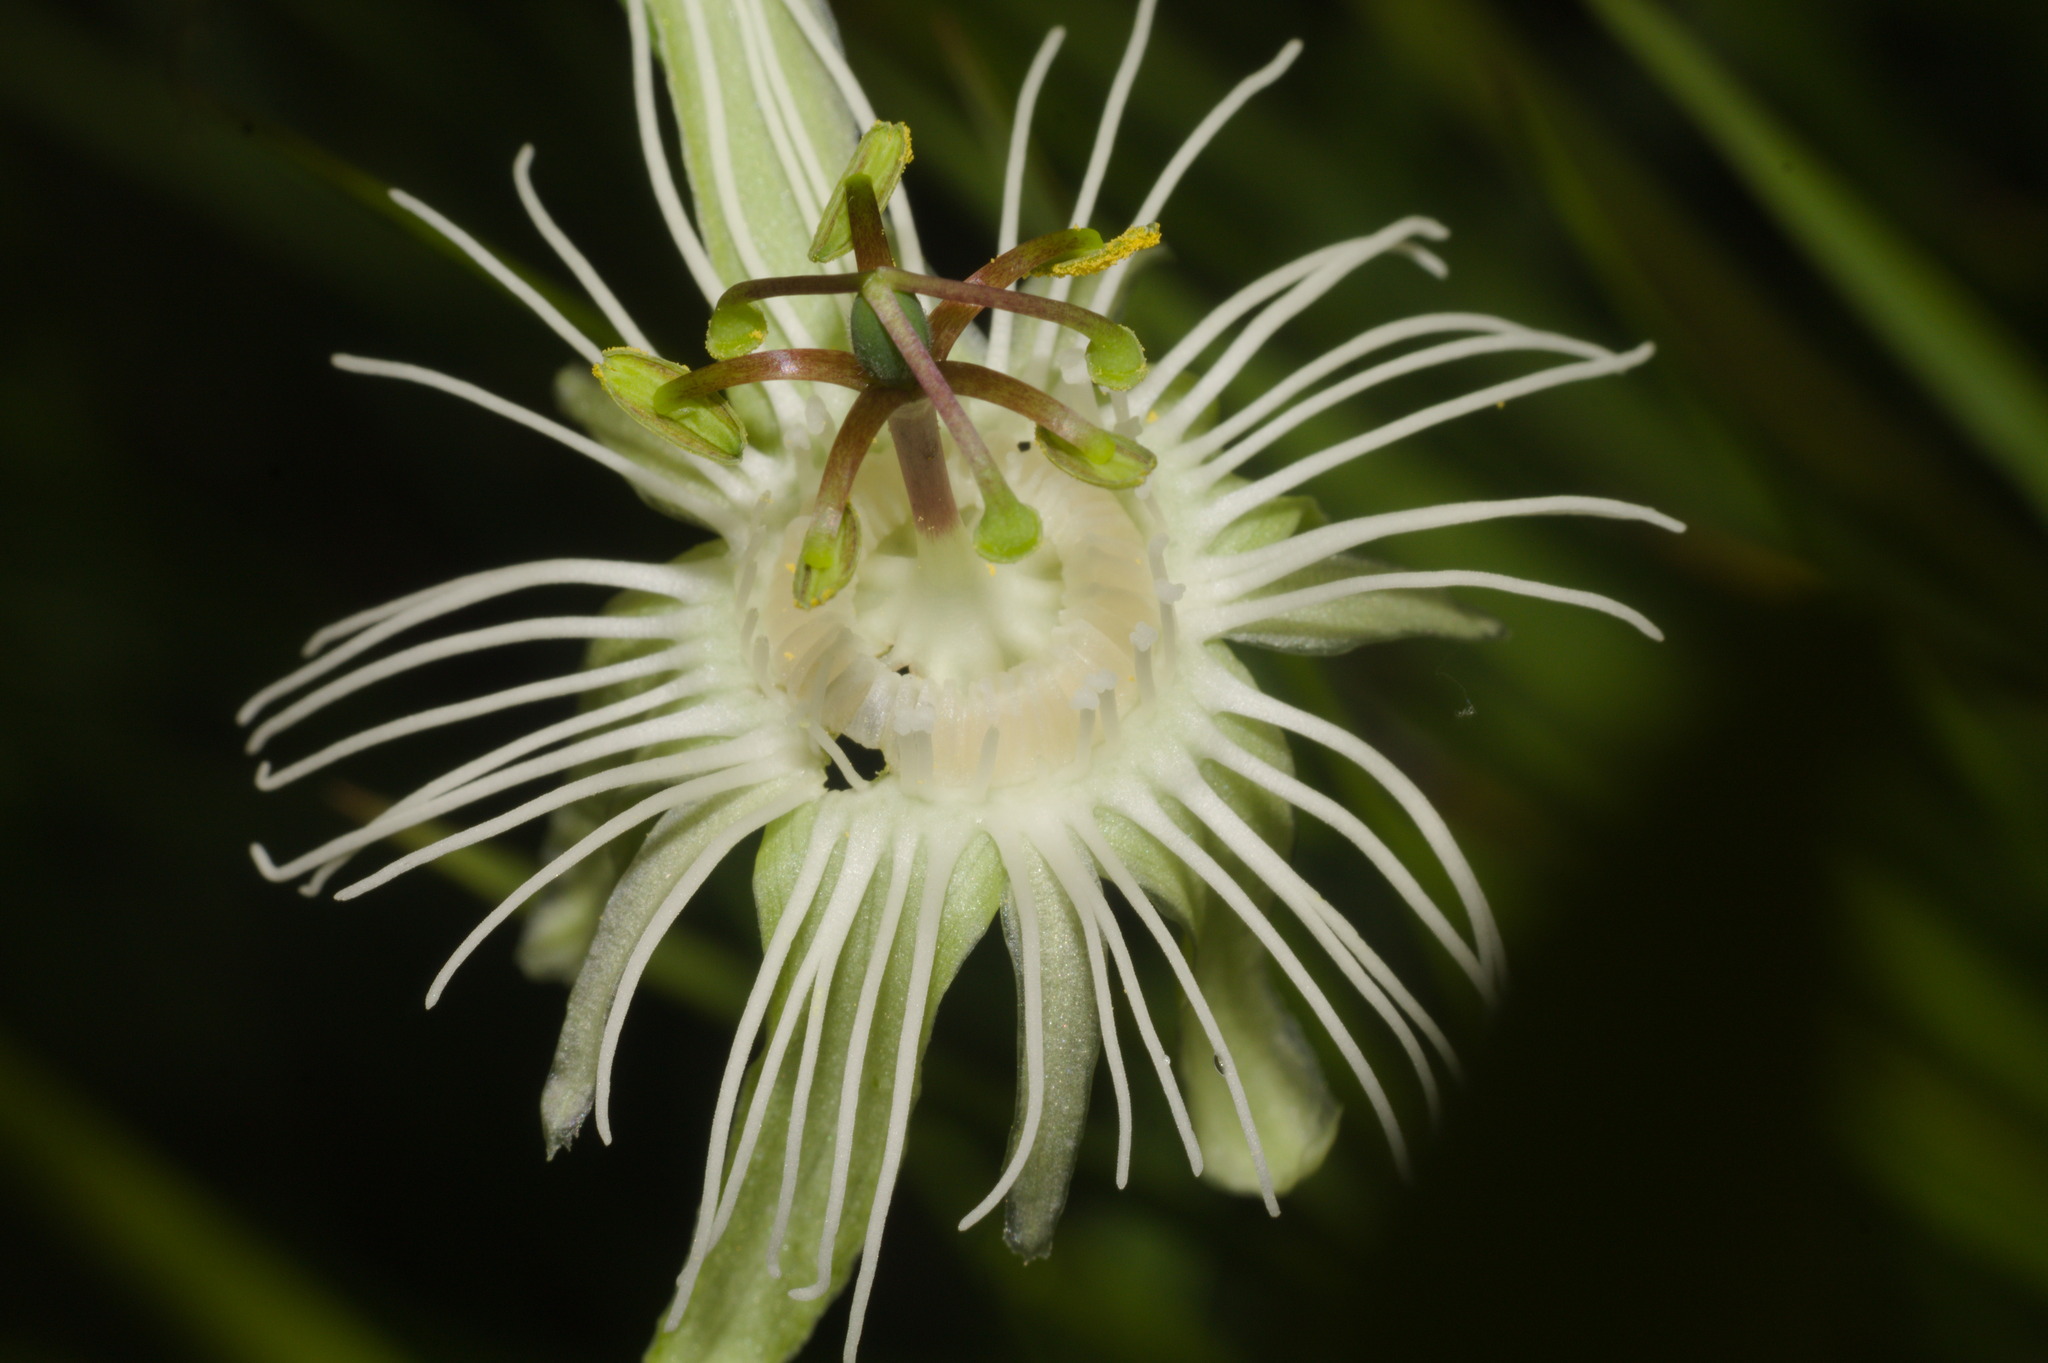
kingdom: Plantae
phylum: Tracheophyta
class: Magnoliopsida
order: Malpighiales
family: Passifloraceae
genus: Passiflora
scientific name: Passiflora misera
